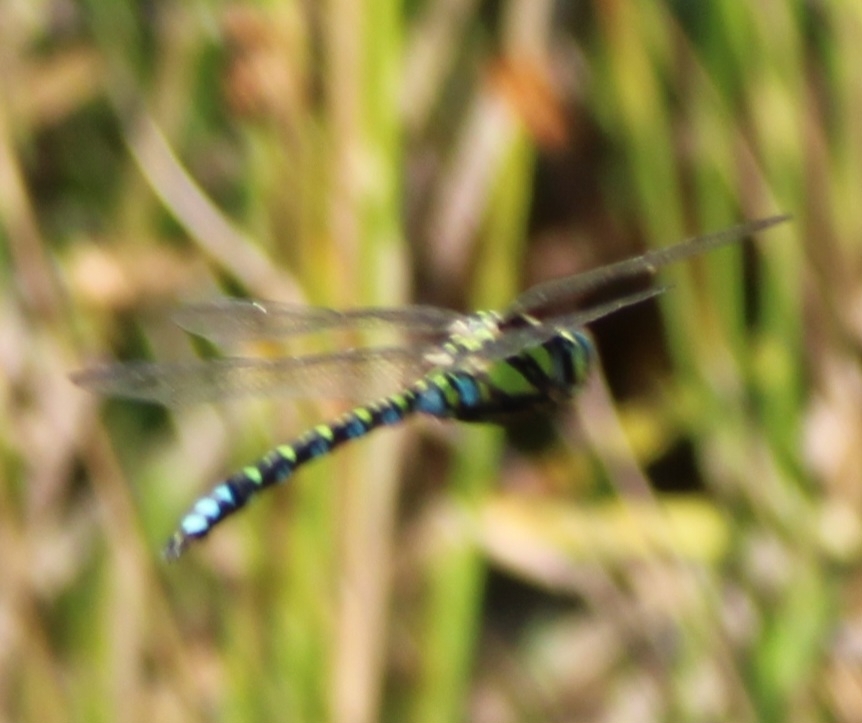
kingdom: Animalia
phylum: Arthropoda
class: Insecta
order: Odonata
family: Aeshnidae
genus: Aeshna
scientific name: Aeshna cyanea
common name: Southern hawker
